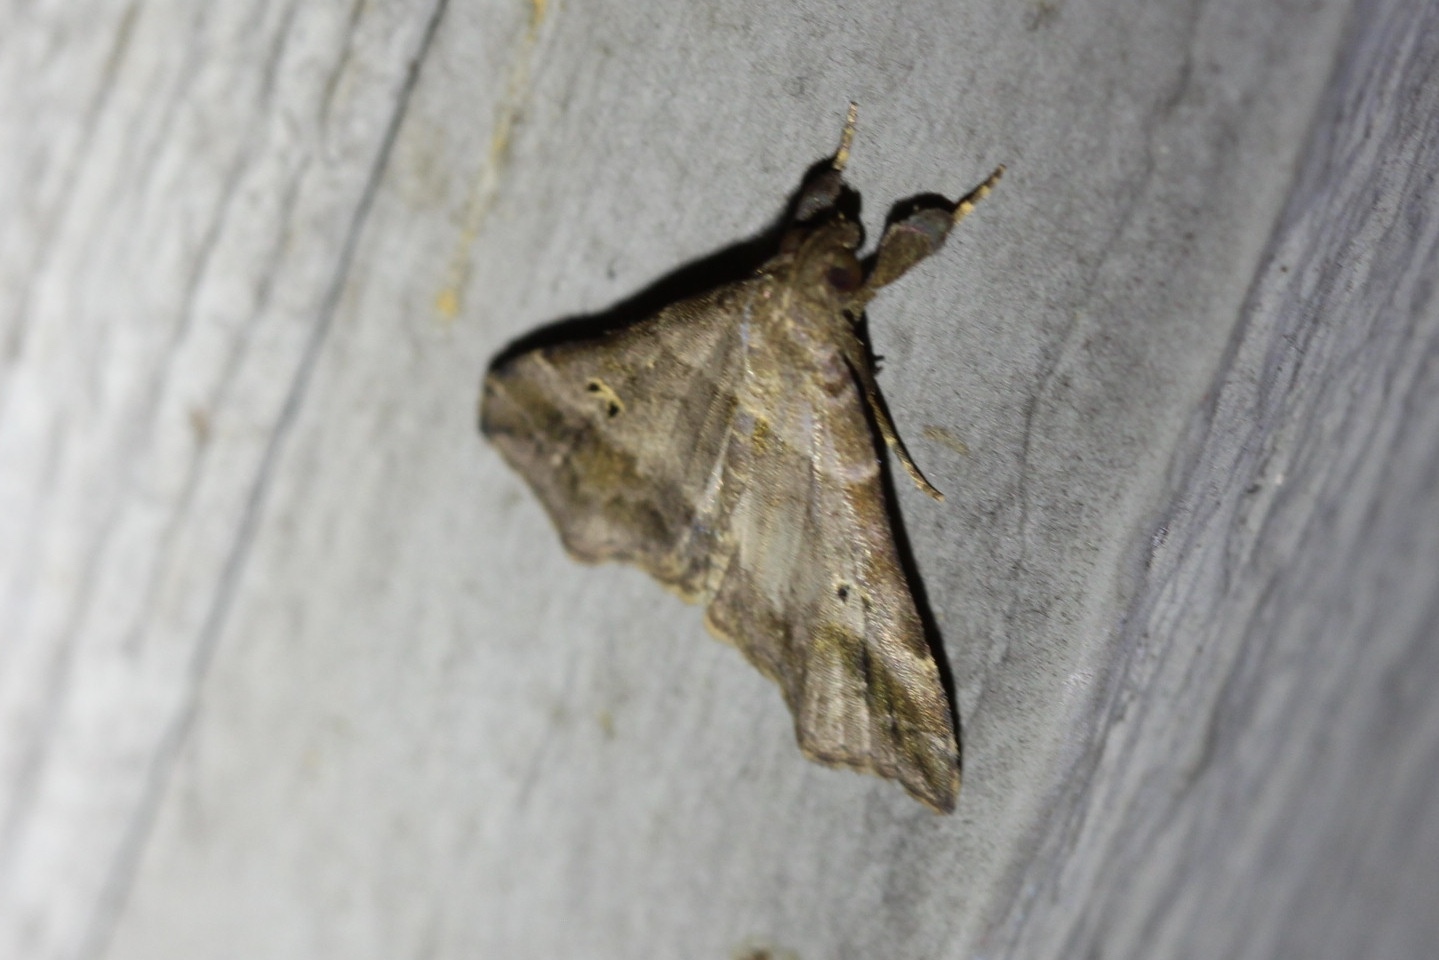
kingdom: Animalia
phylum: Arthropoda
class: Insecta
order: Lepidoptera
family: Erebidae
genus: Phaeolita
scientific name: Phaeolita pyramusalis
